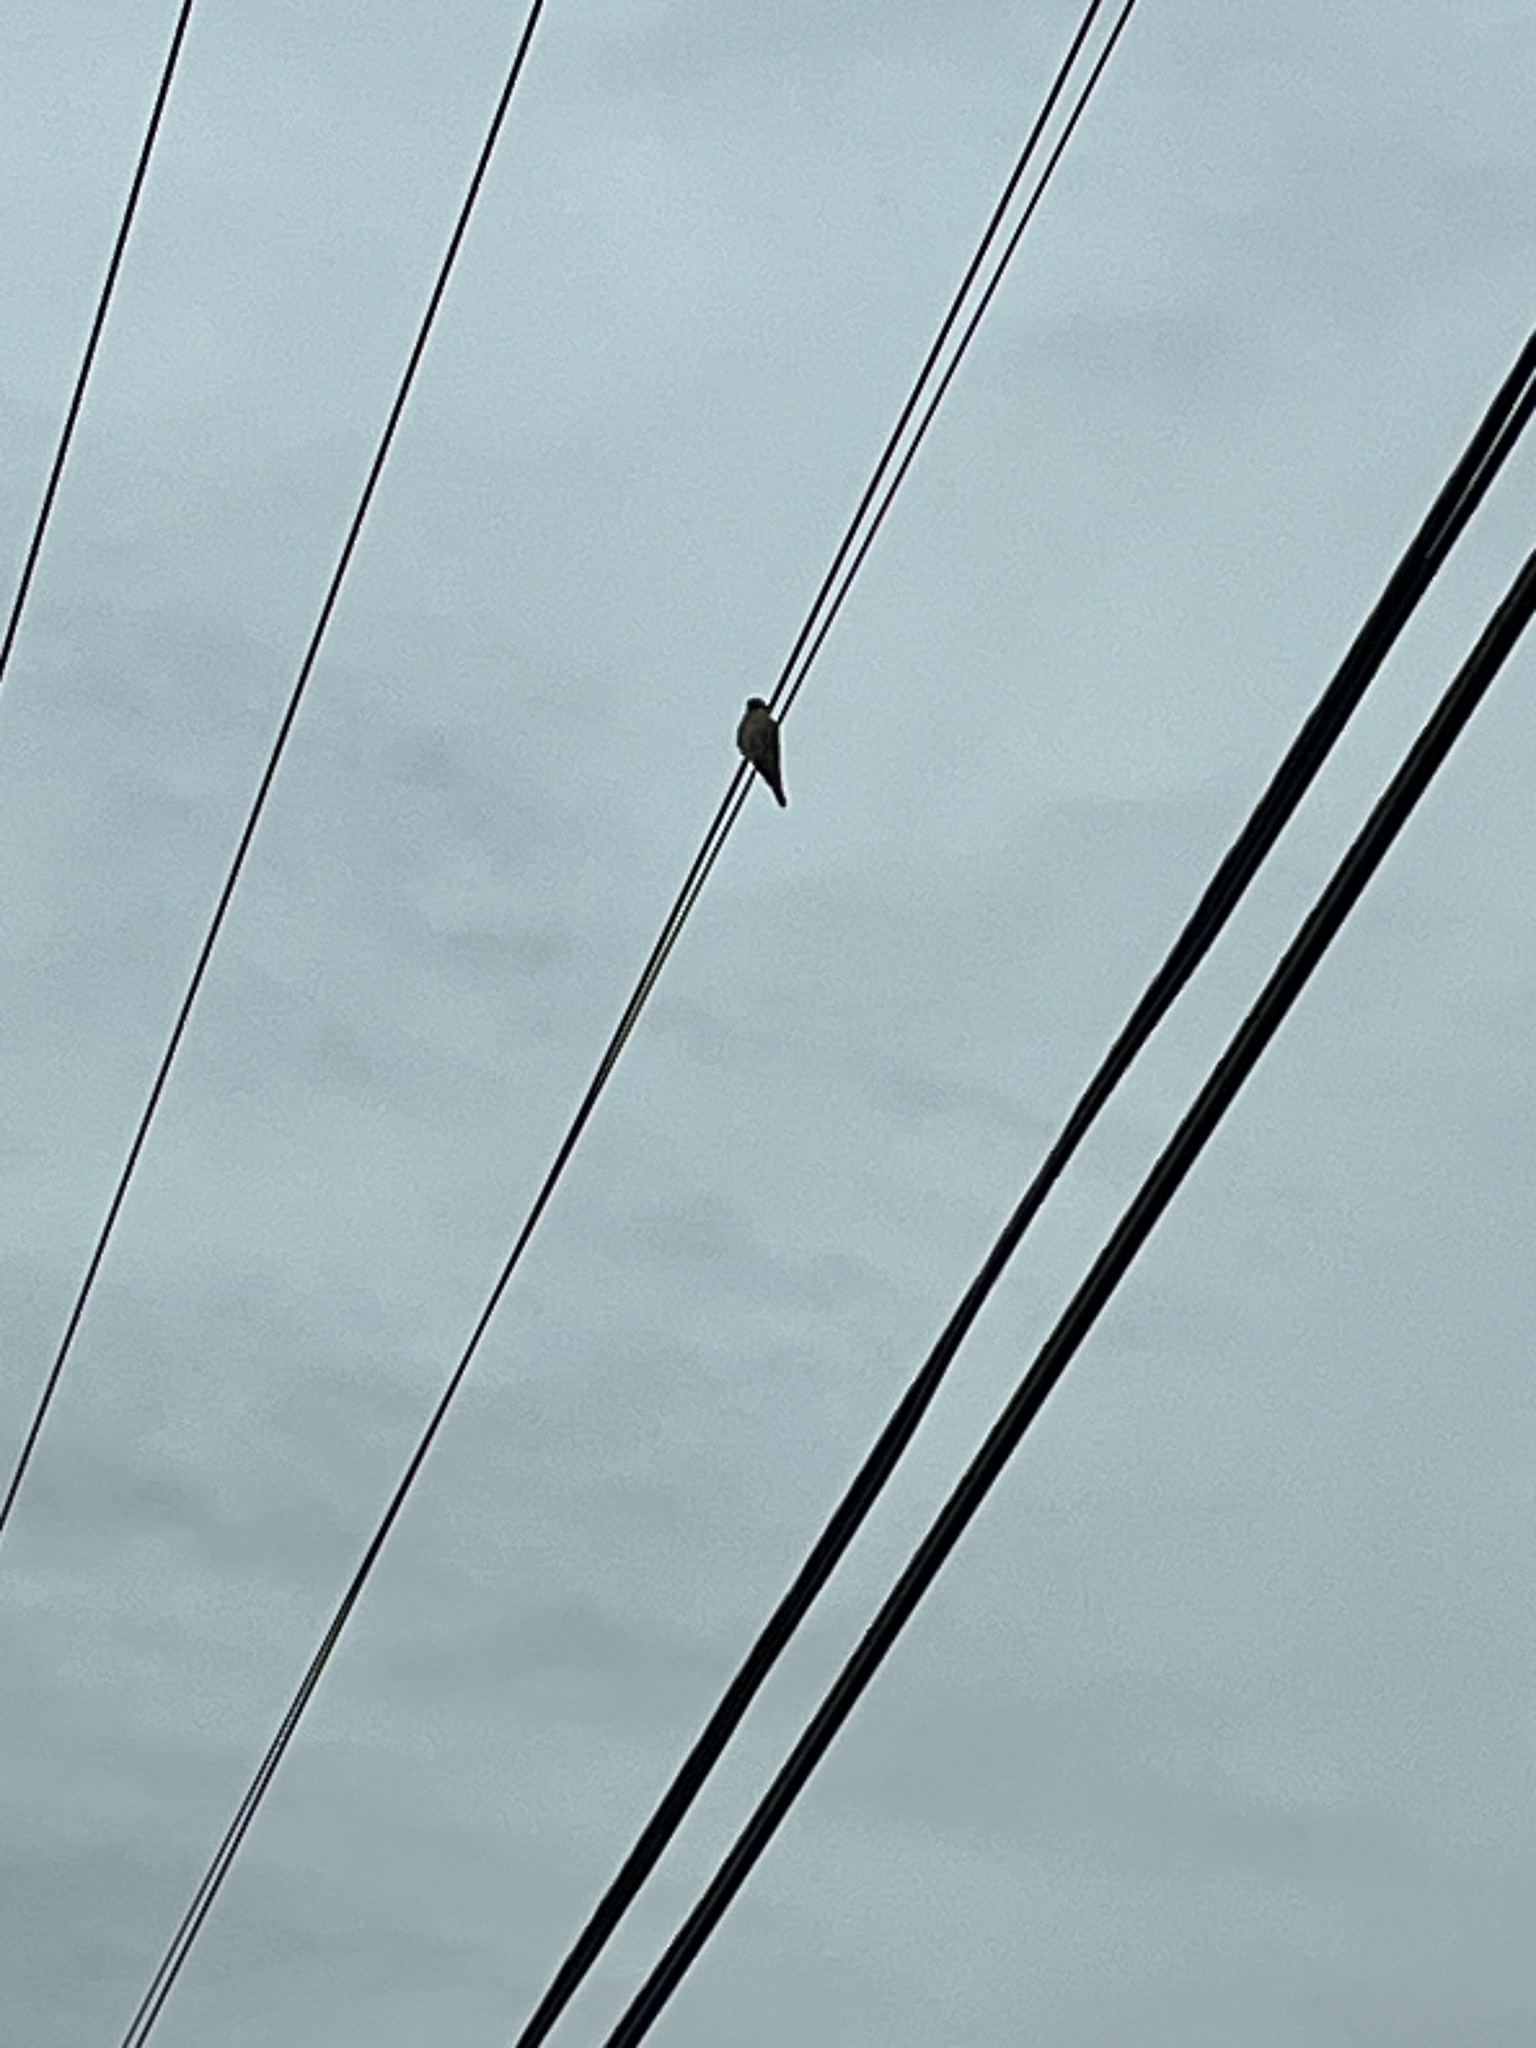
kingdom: Animalia
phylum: Chordata
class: Aves
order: Falconiformes
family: Falconidae
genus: Falco
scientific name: Falco sparverius
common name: American kestrel
